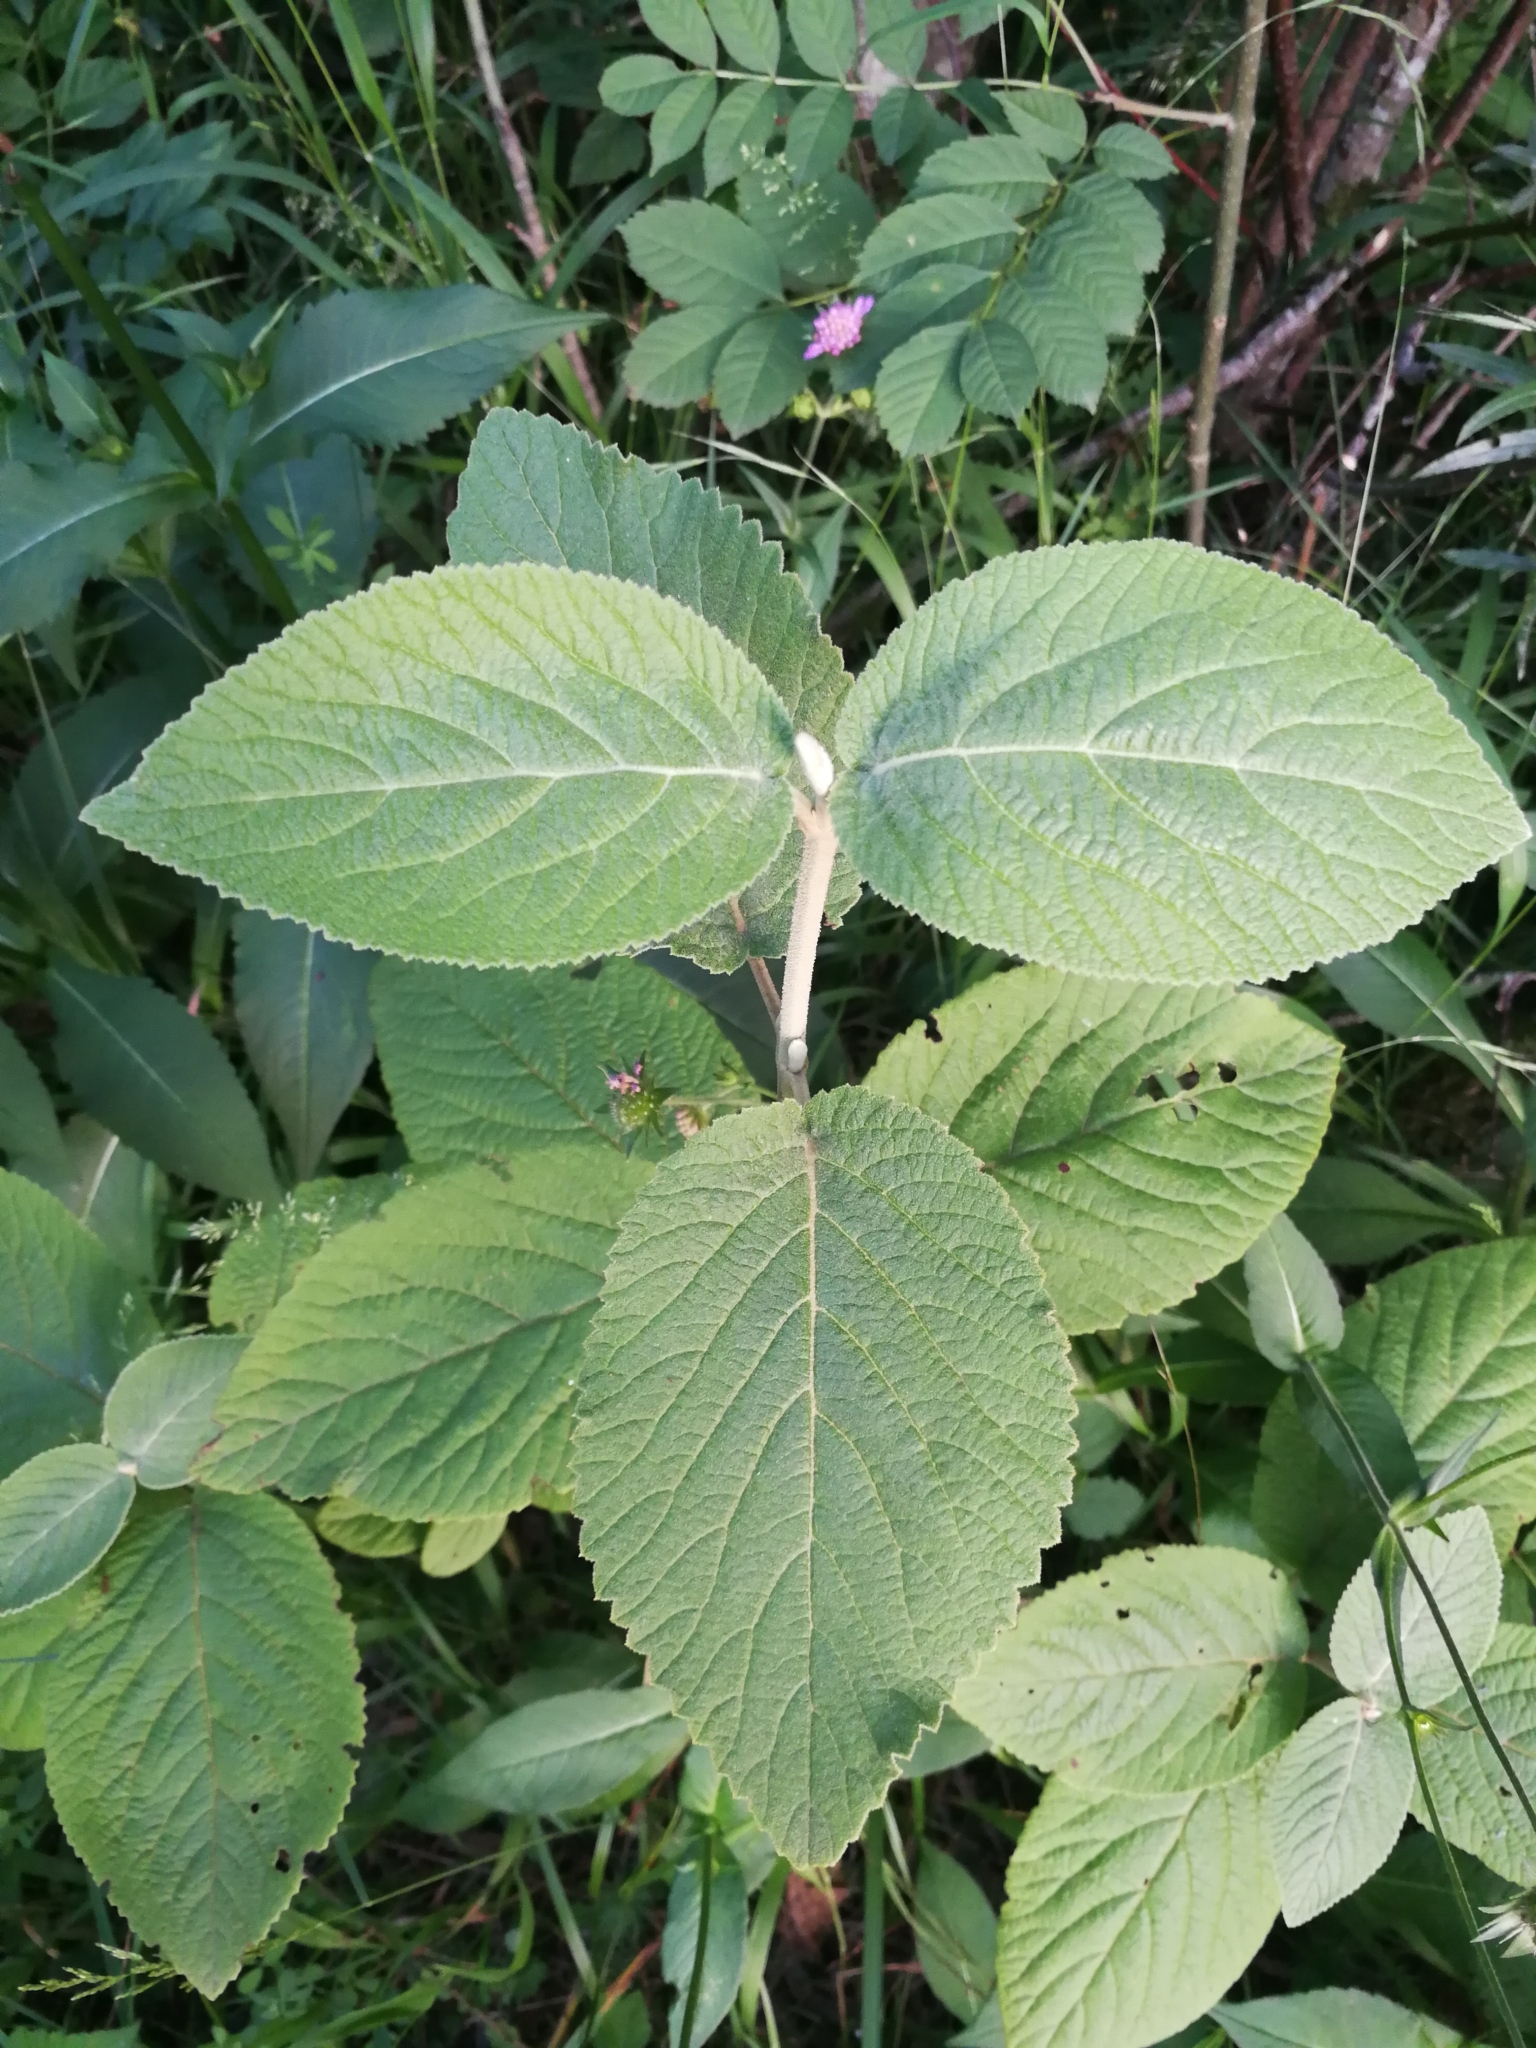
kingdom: Plantae
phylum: Tracheophyta
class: Magnoliopsida
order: Dipsacales
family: Viburnaceae
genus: Viburnum
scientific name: Viburnum lantana
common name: Wayfaring tree
